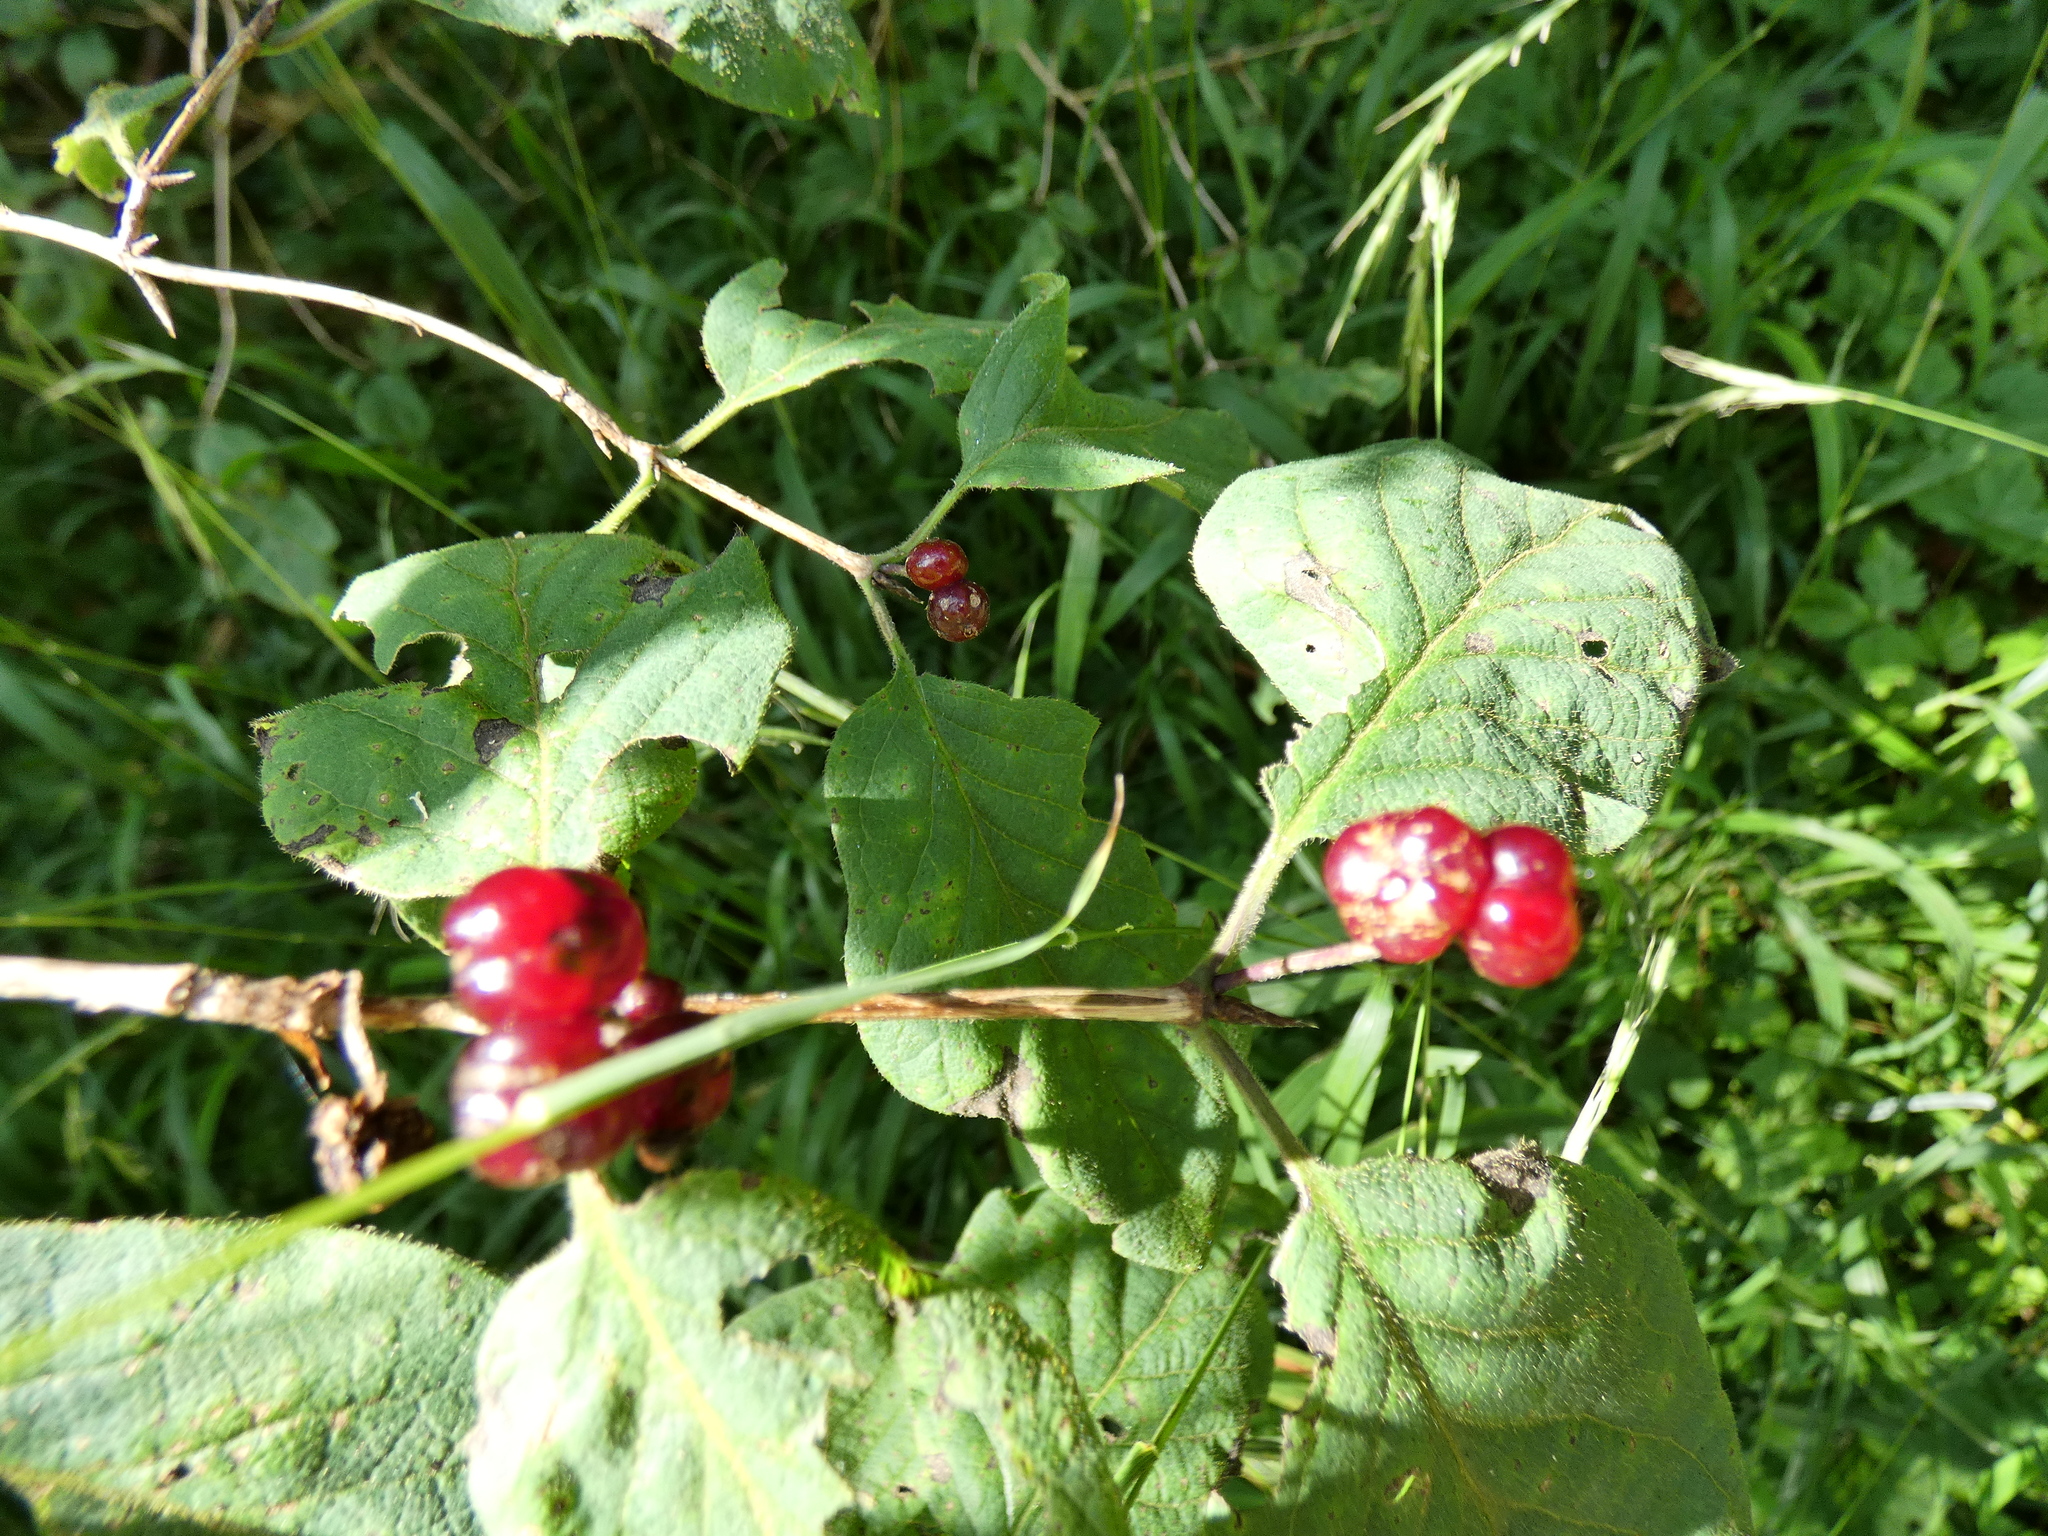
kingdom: Plantae
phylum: Tracheophyta
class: Magnoliopsida
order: Dipsacales
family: Caprifoliaceae
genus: Lonicera
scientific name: Lonicera xylosteum
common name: Fly honeysuckle
